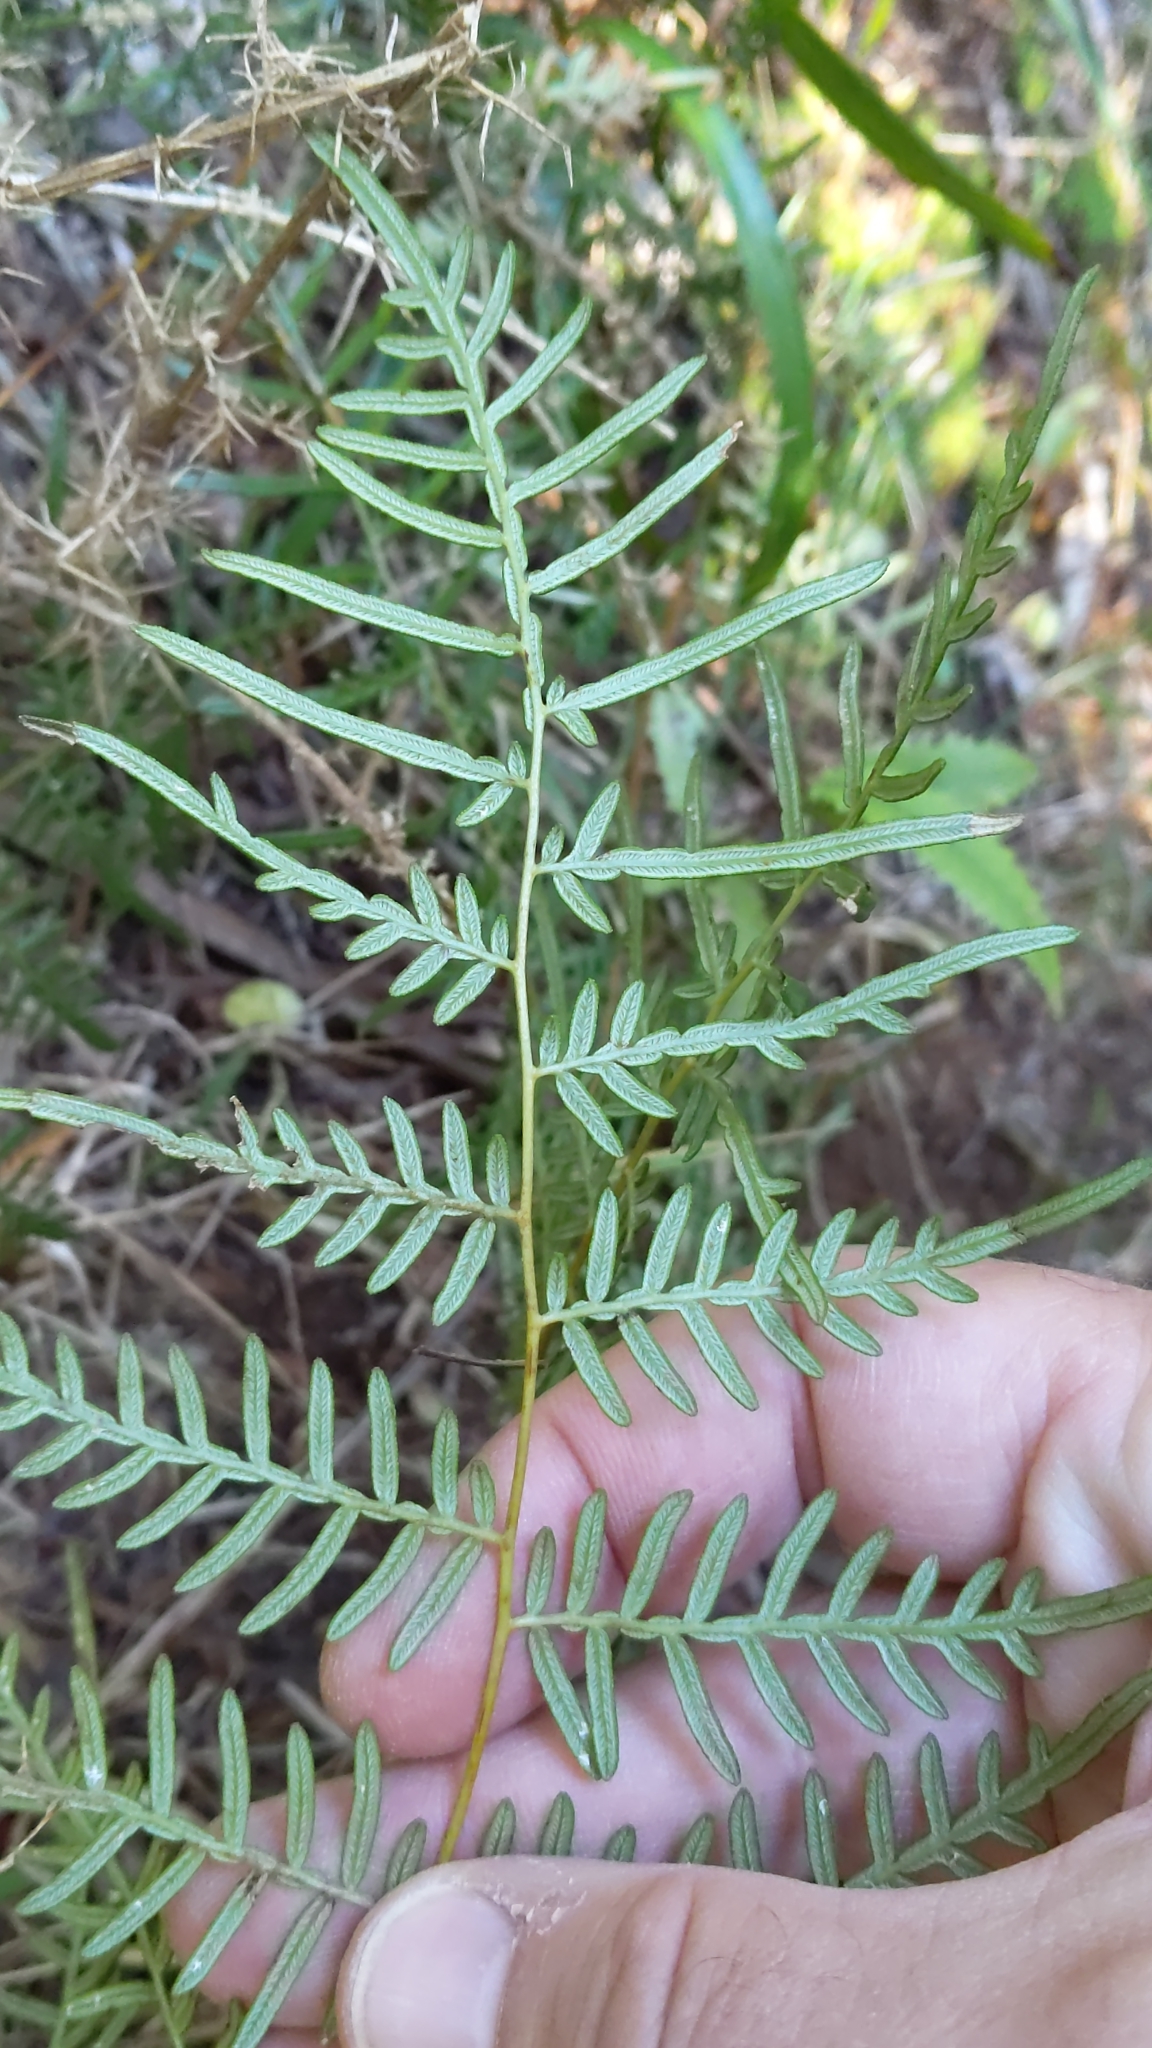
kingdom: Plantae
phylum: Tracheophyta
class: Polypodiopsida
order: Polypodiales
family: Dennstaedtiaceae
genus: Pteridium
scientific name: Pteridium esculentum
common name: Bracken fern
